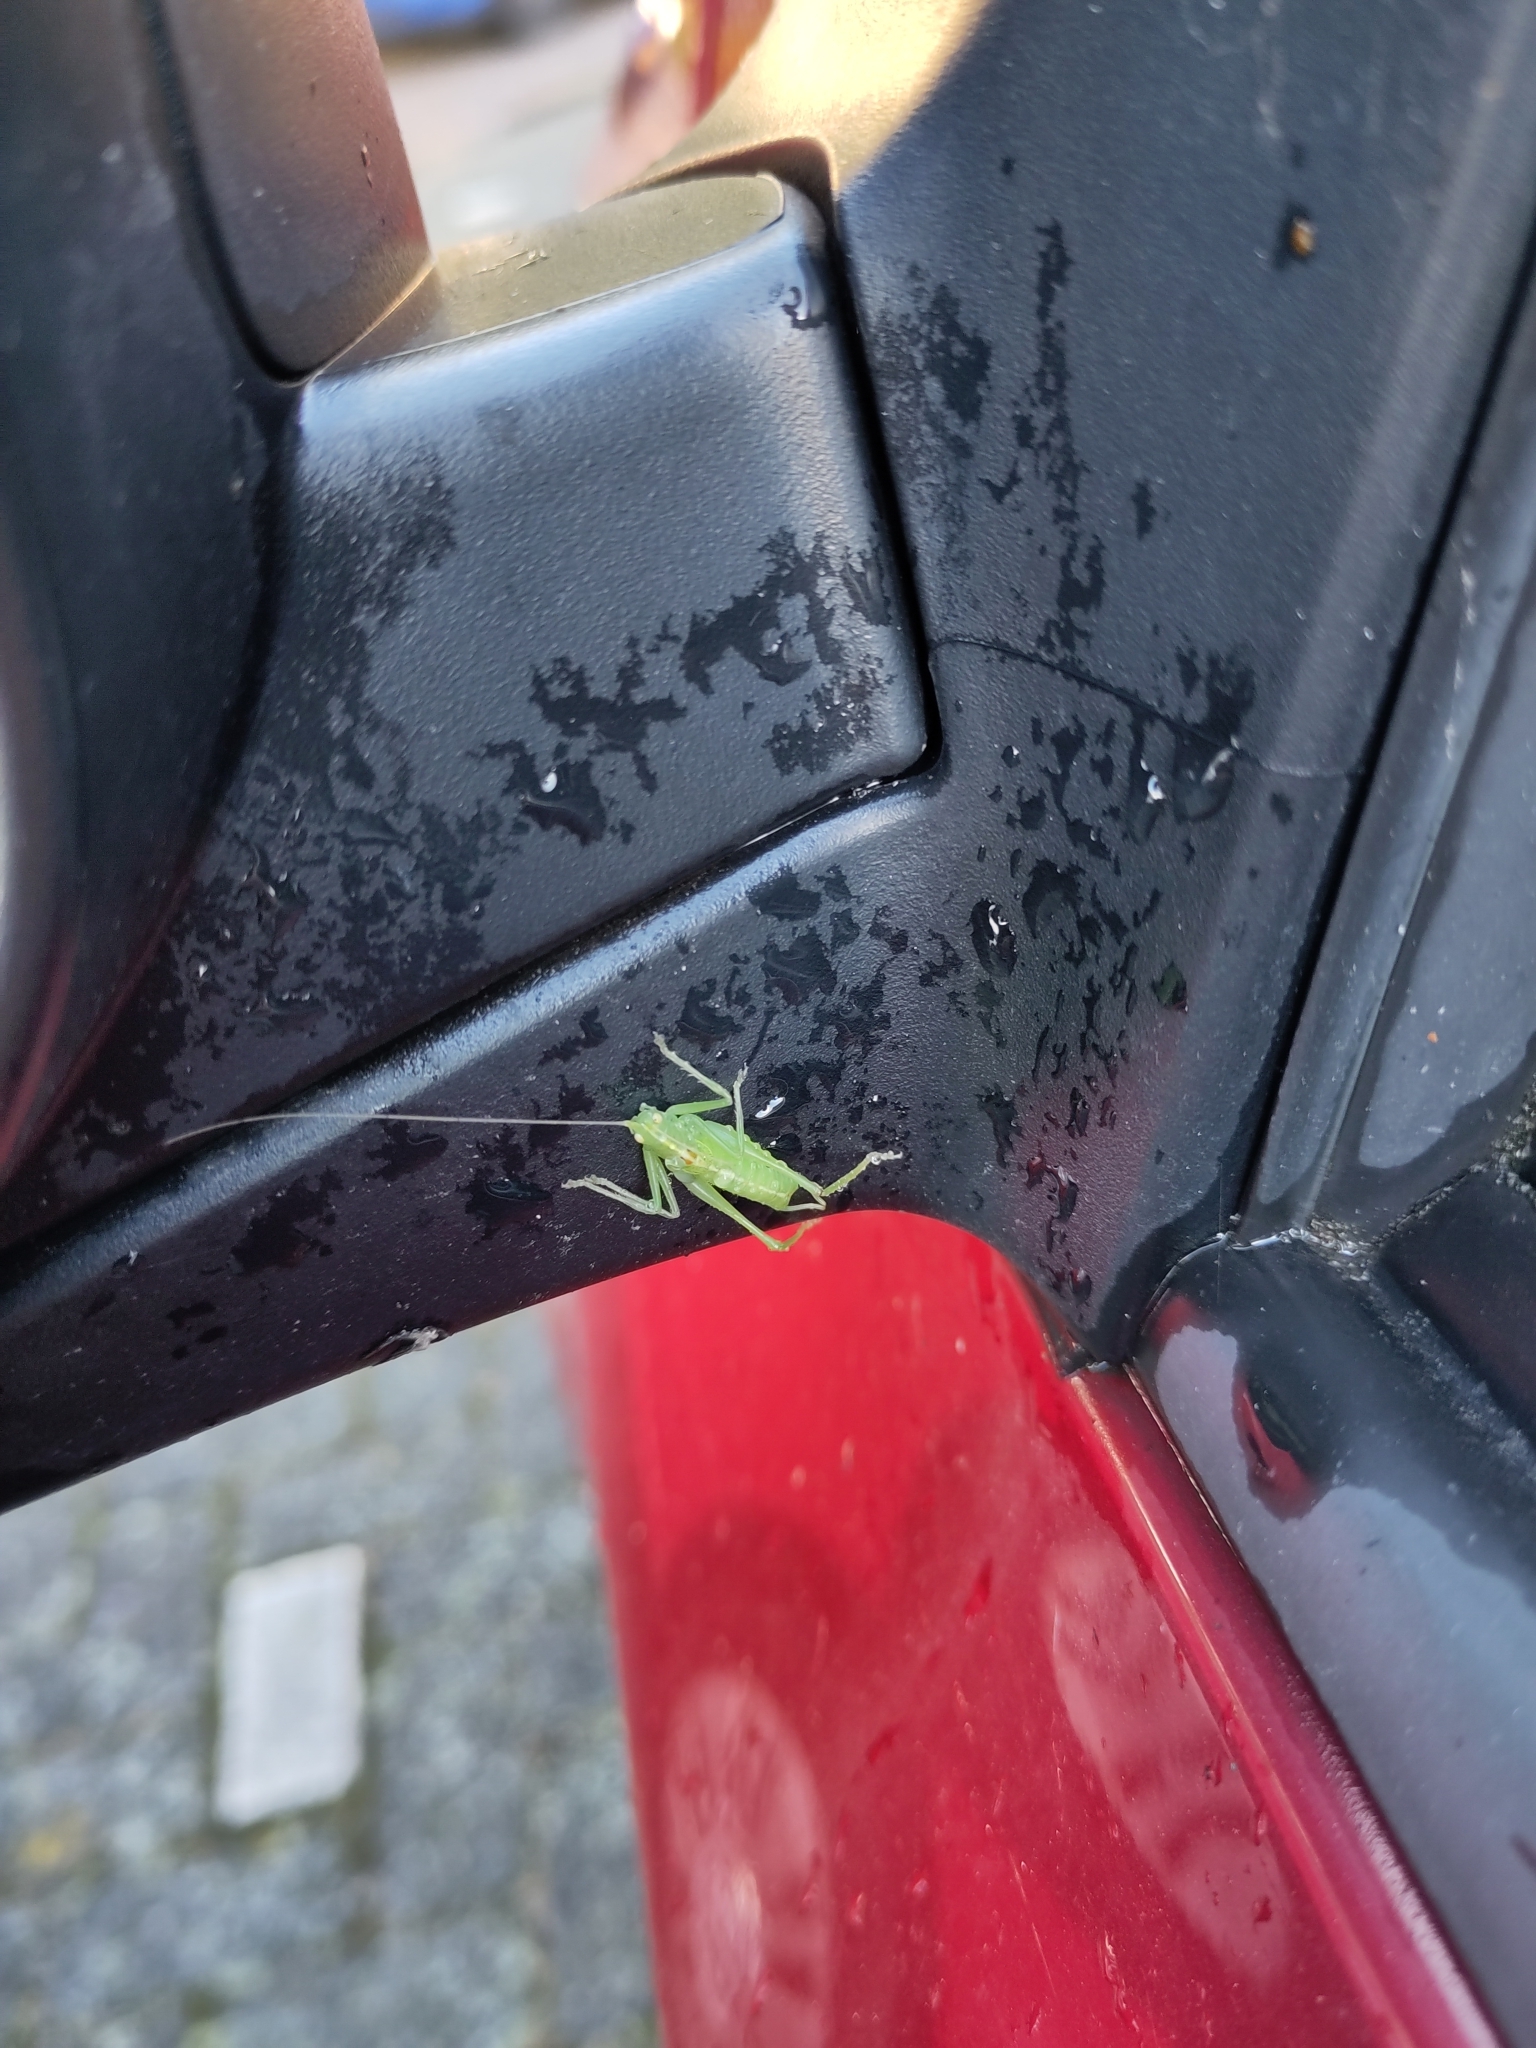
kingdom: Animalia
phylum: Arthropoda
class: Insecta
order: Orthoptera
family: Tettigoniidae
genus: Meconema
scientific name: Meconema meridionale
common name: Southern oak bush-cricket
